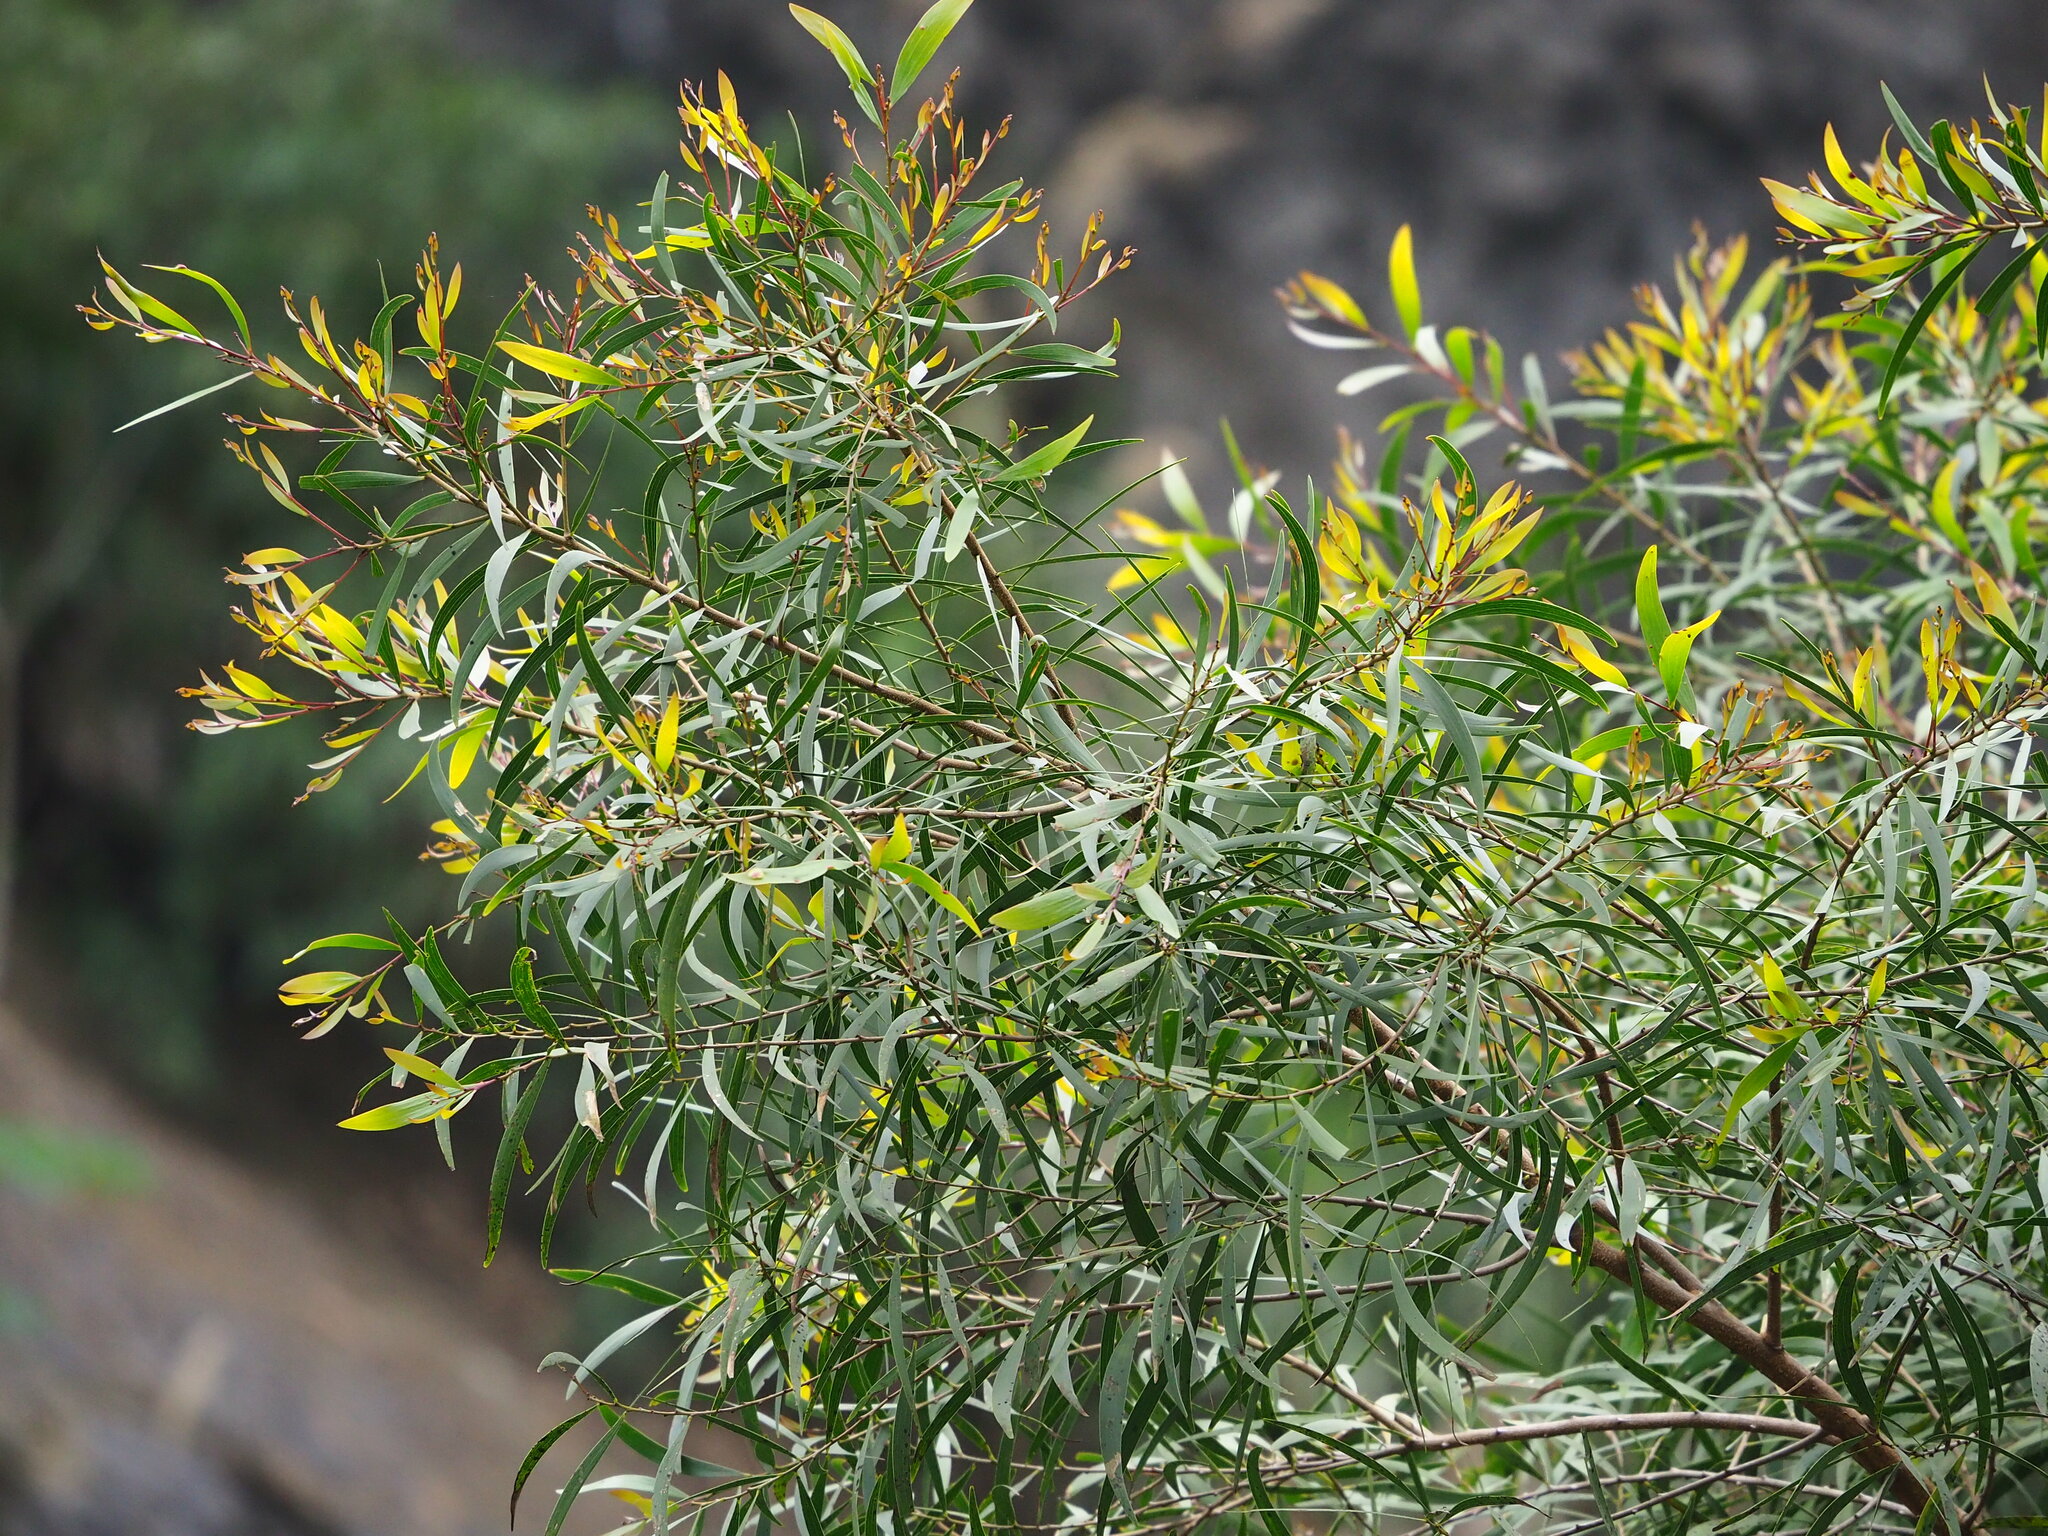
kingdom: Plantae
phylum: Tracheophyta
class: Magnoliopsida
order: Fabales
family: Fabaceae
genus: Acacia
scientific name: Acacia confusa
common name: Formosan koa
